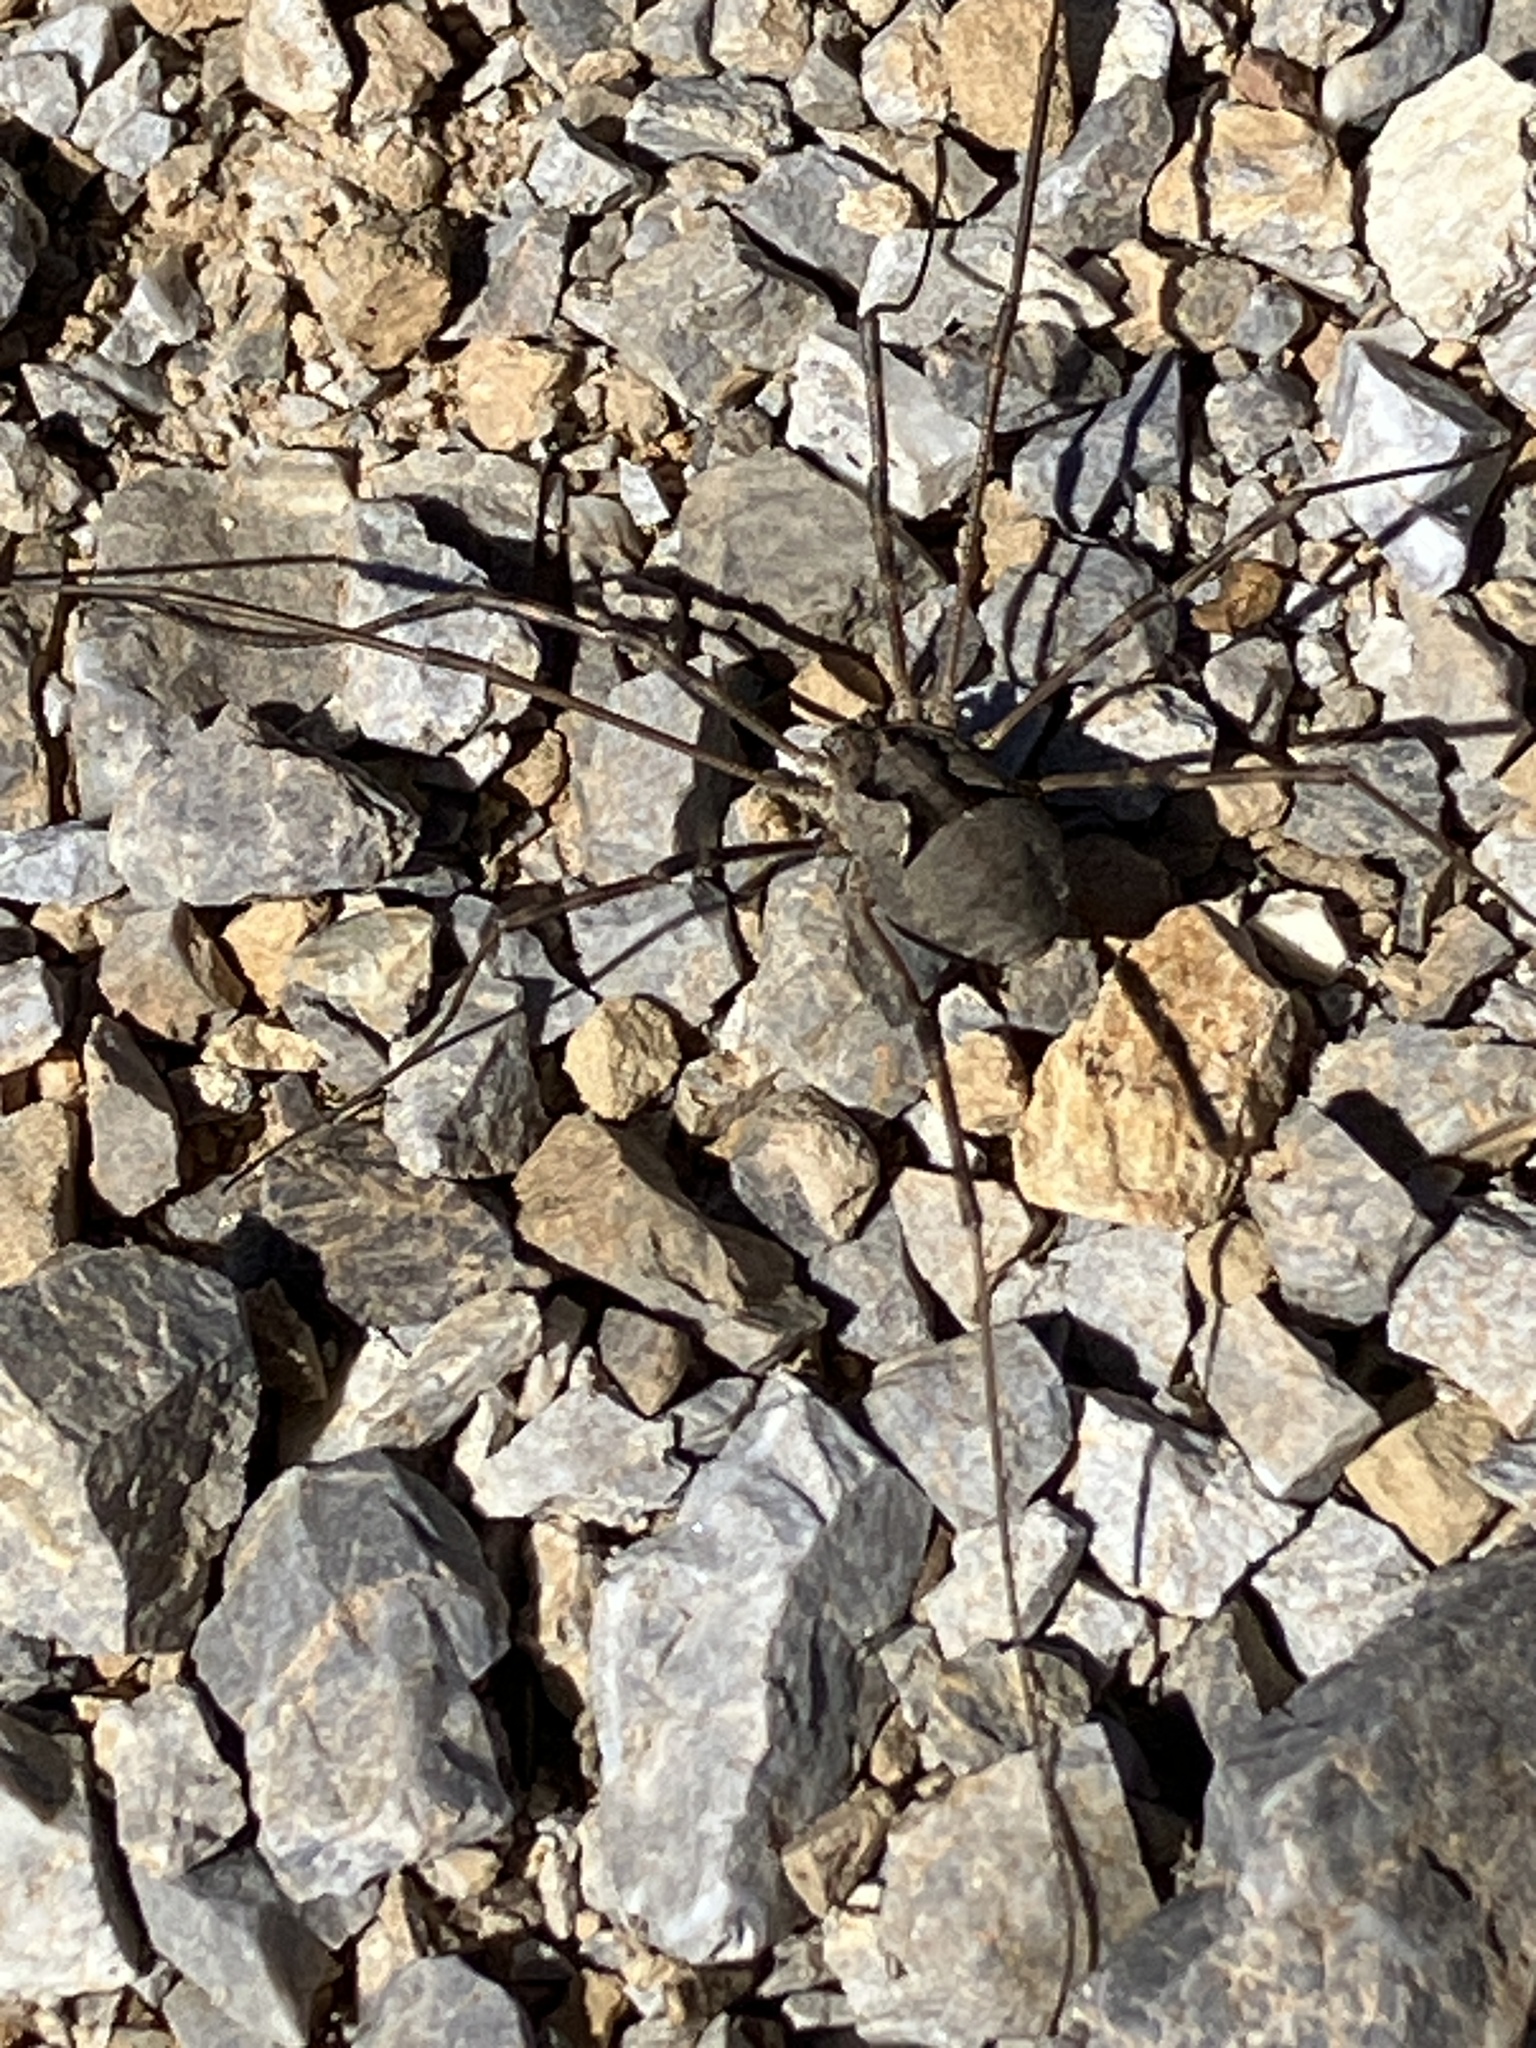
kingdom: Animalia
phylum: Arthropoda
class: Arachnida
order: Opiliones
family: Phalangiidae
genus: Metaphalangium
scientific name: Metaphalangium cirtanum
